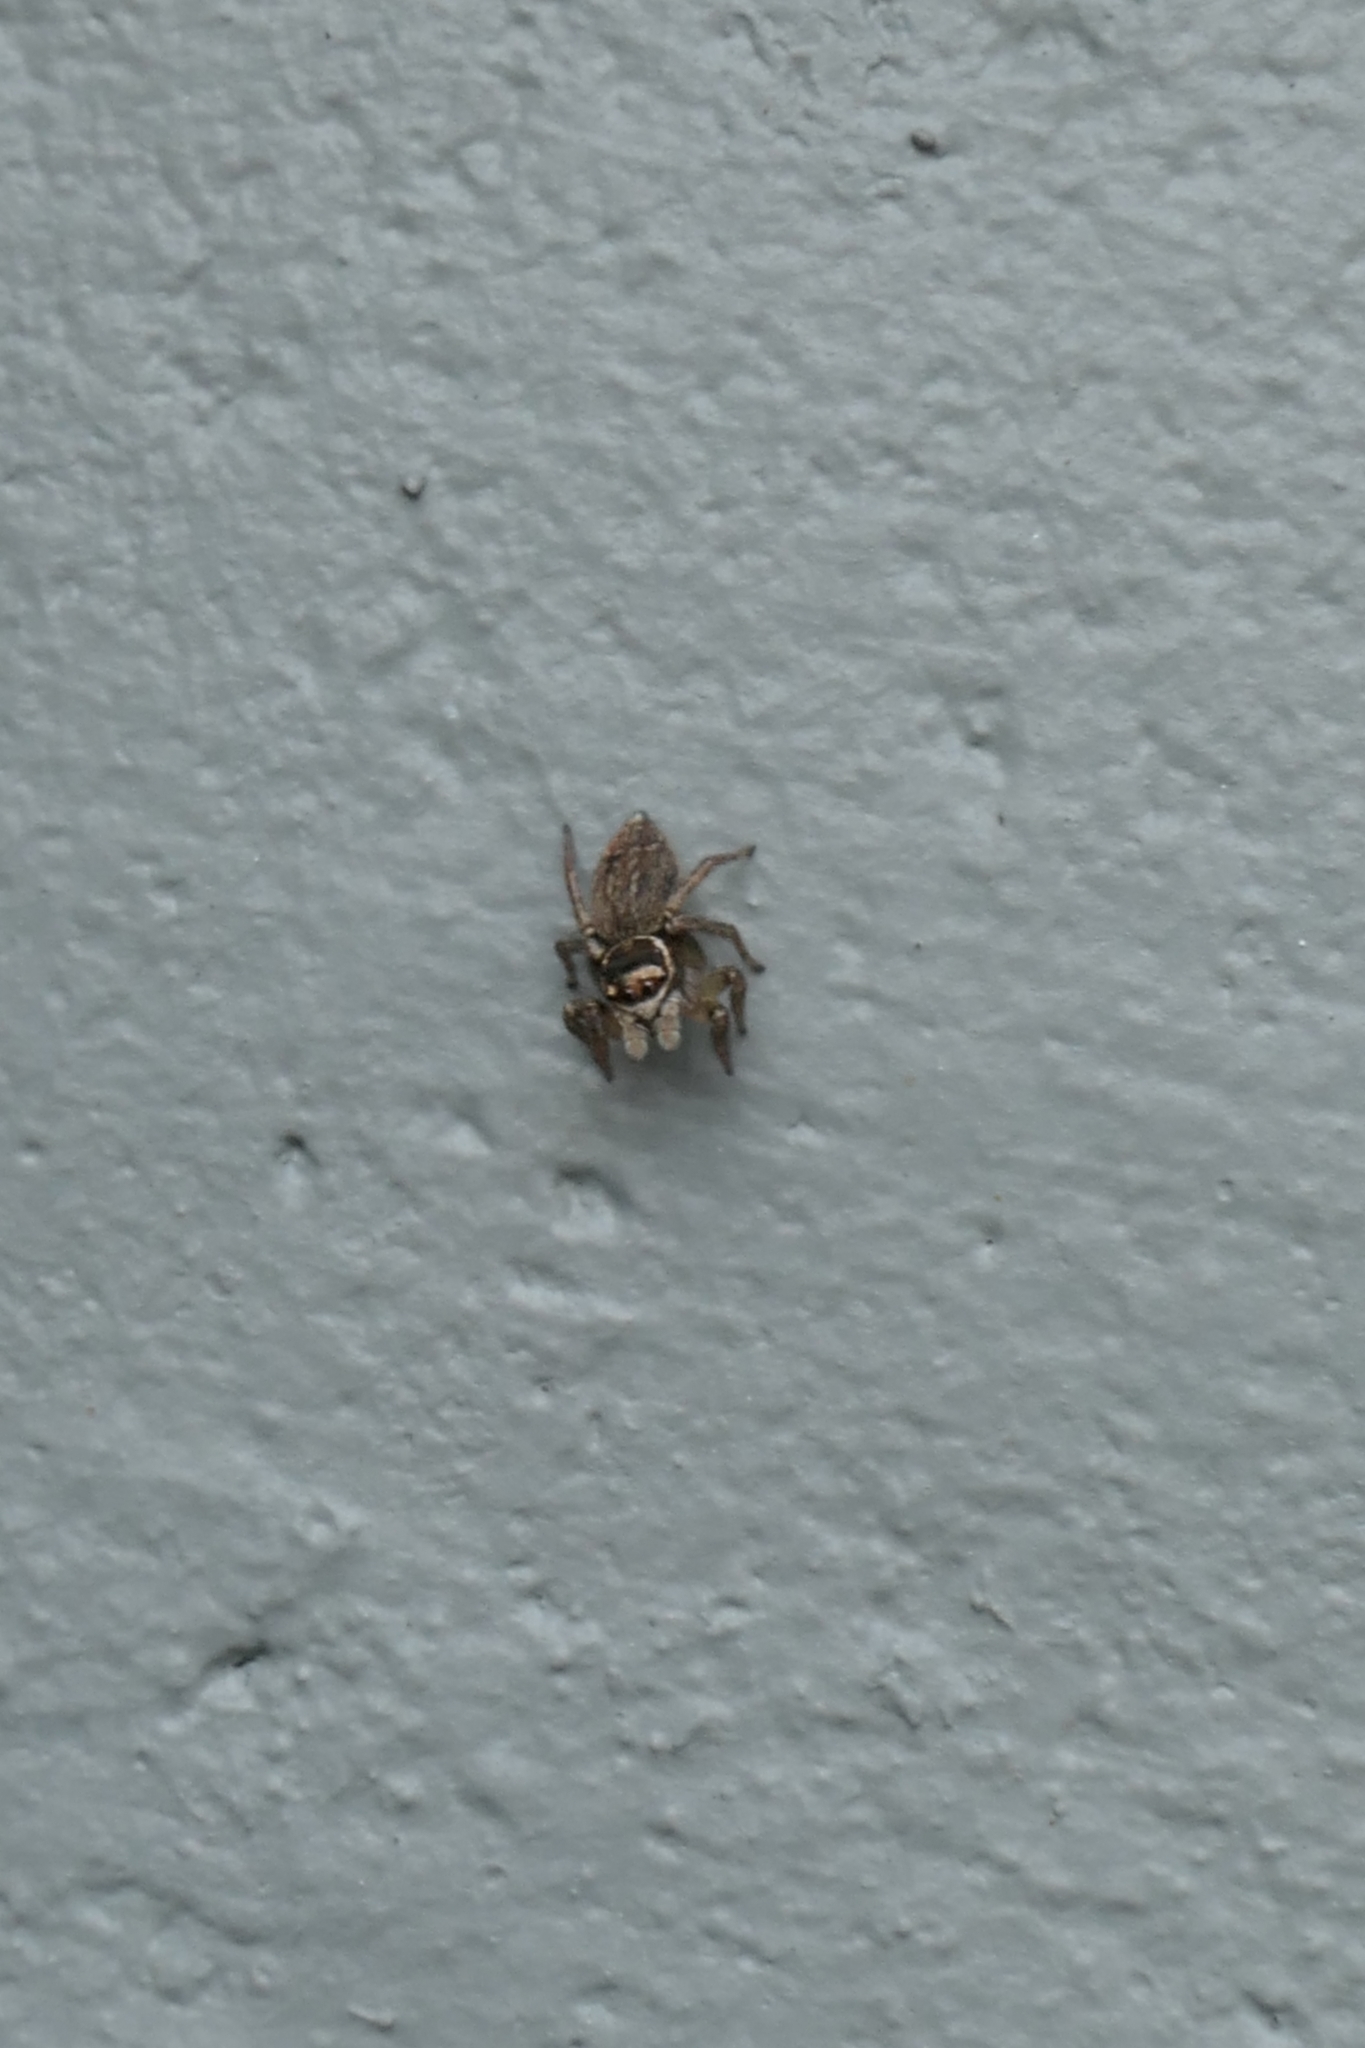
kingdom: Animalia
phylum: Arthropoda
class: Arachnida
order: Araneae
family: Salticidae
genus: Maratus
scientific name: Maratus griseus
